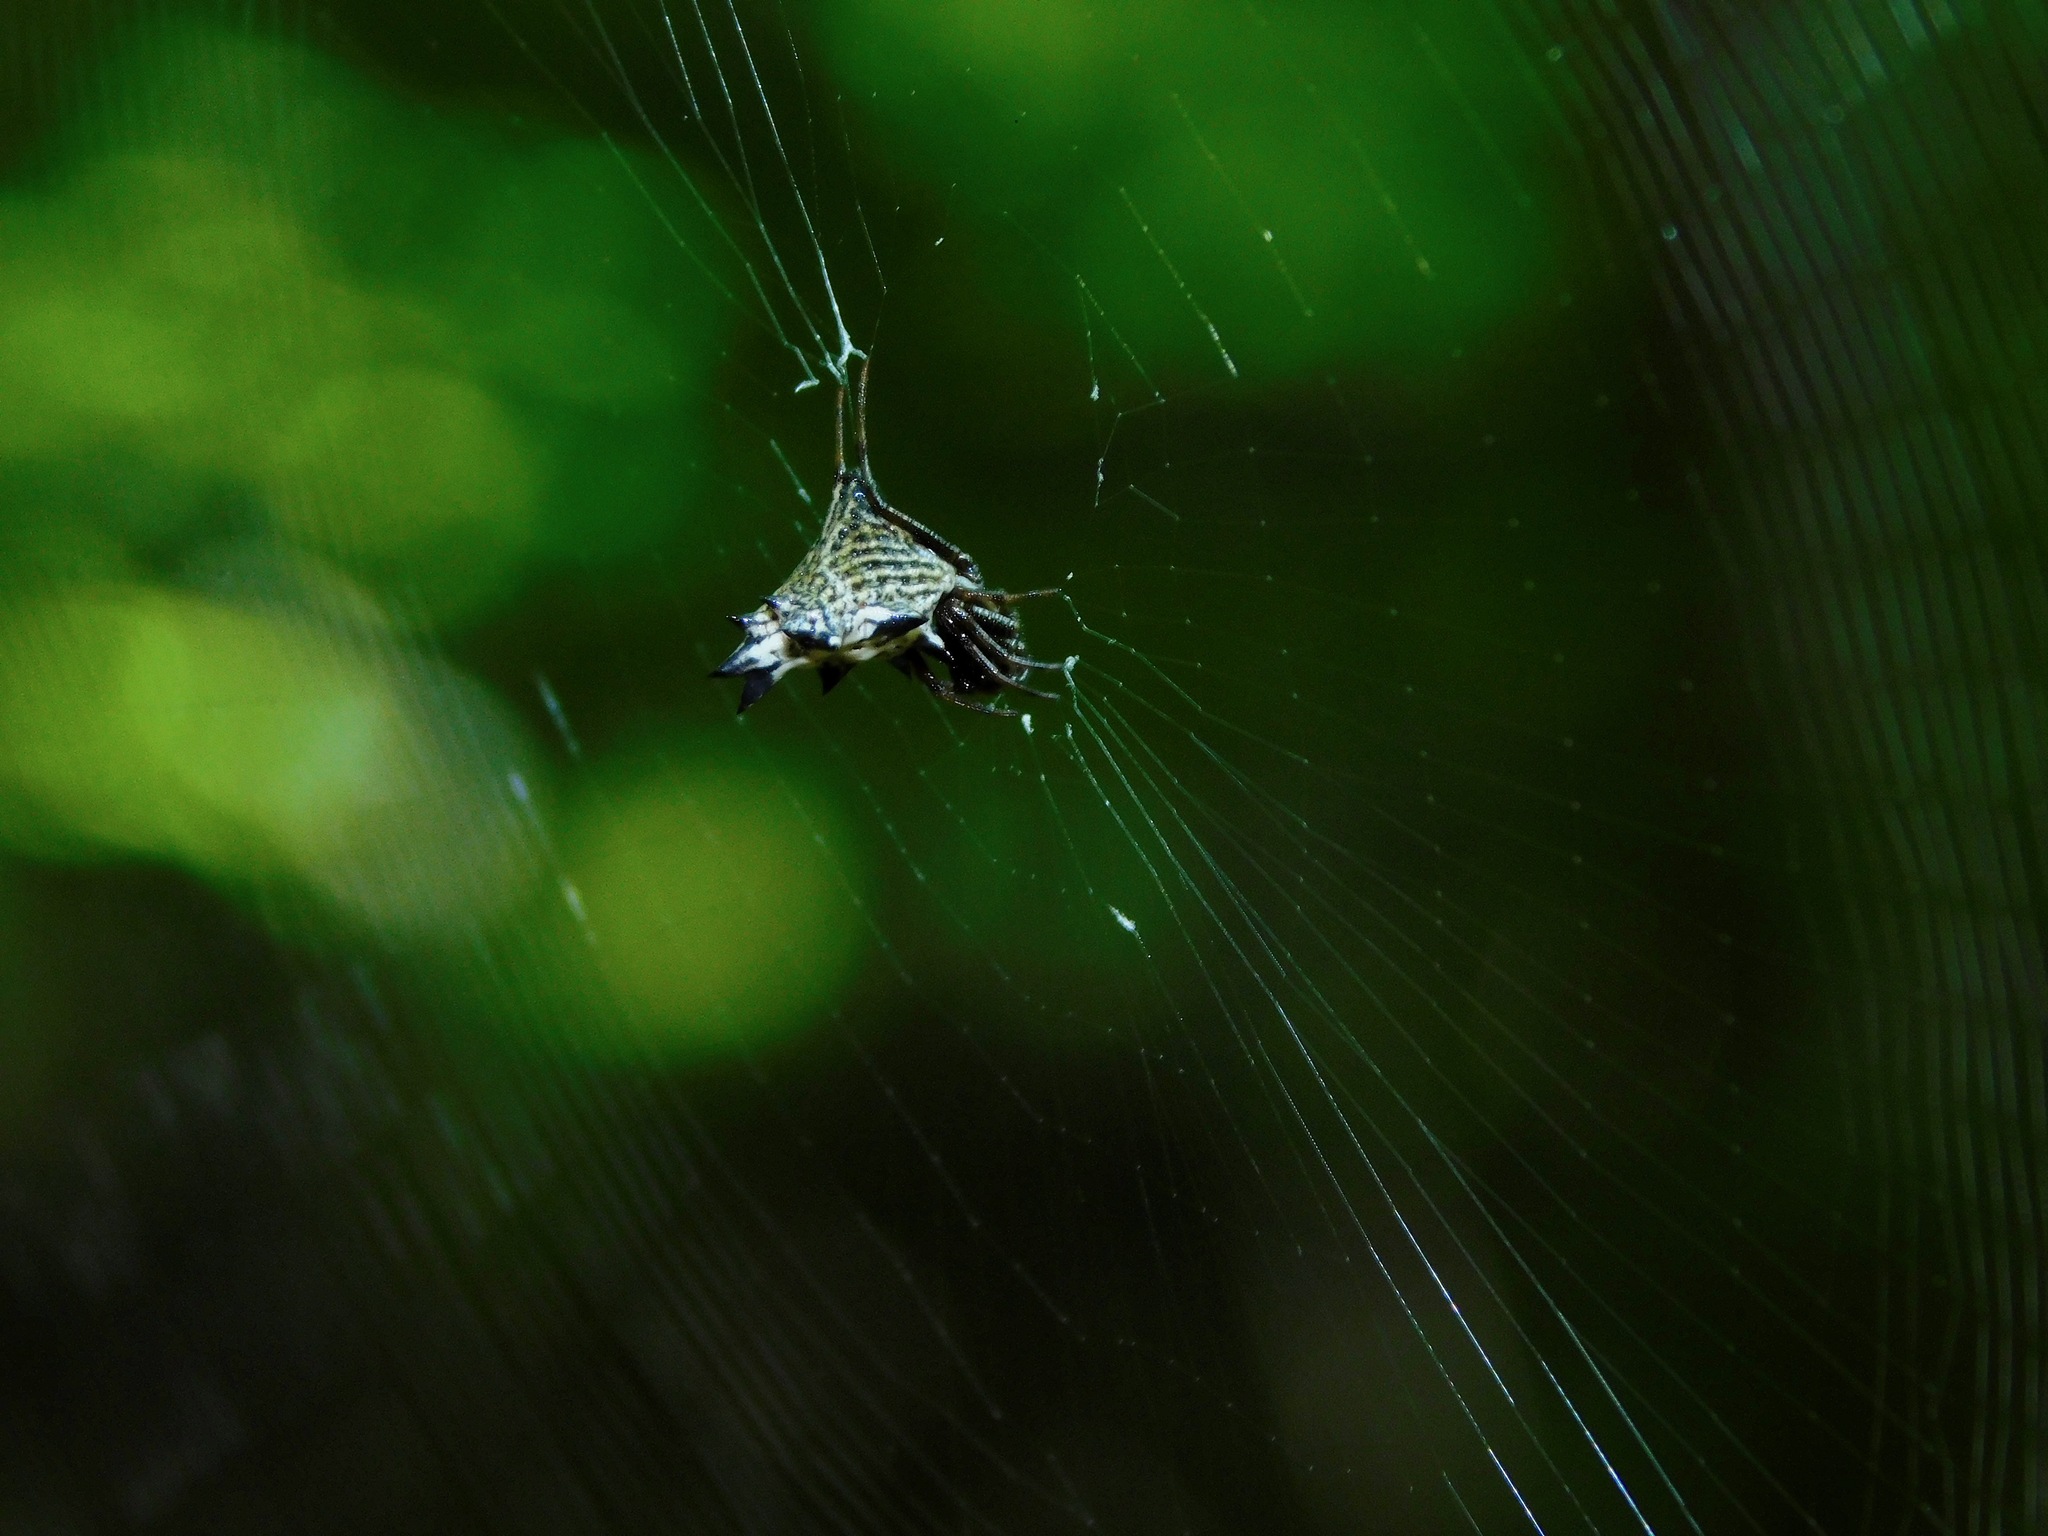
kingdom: Animalia
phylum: Arthropoda
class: Arachnida
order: Araneae
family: Araneidae
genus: Micrathena
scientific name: Micrathena gracilis
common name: Orb weavers
